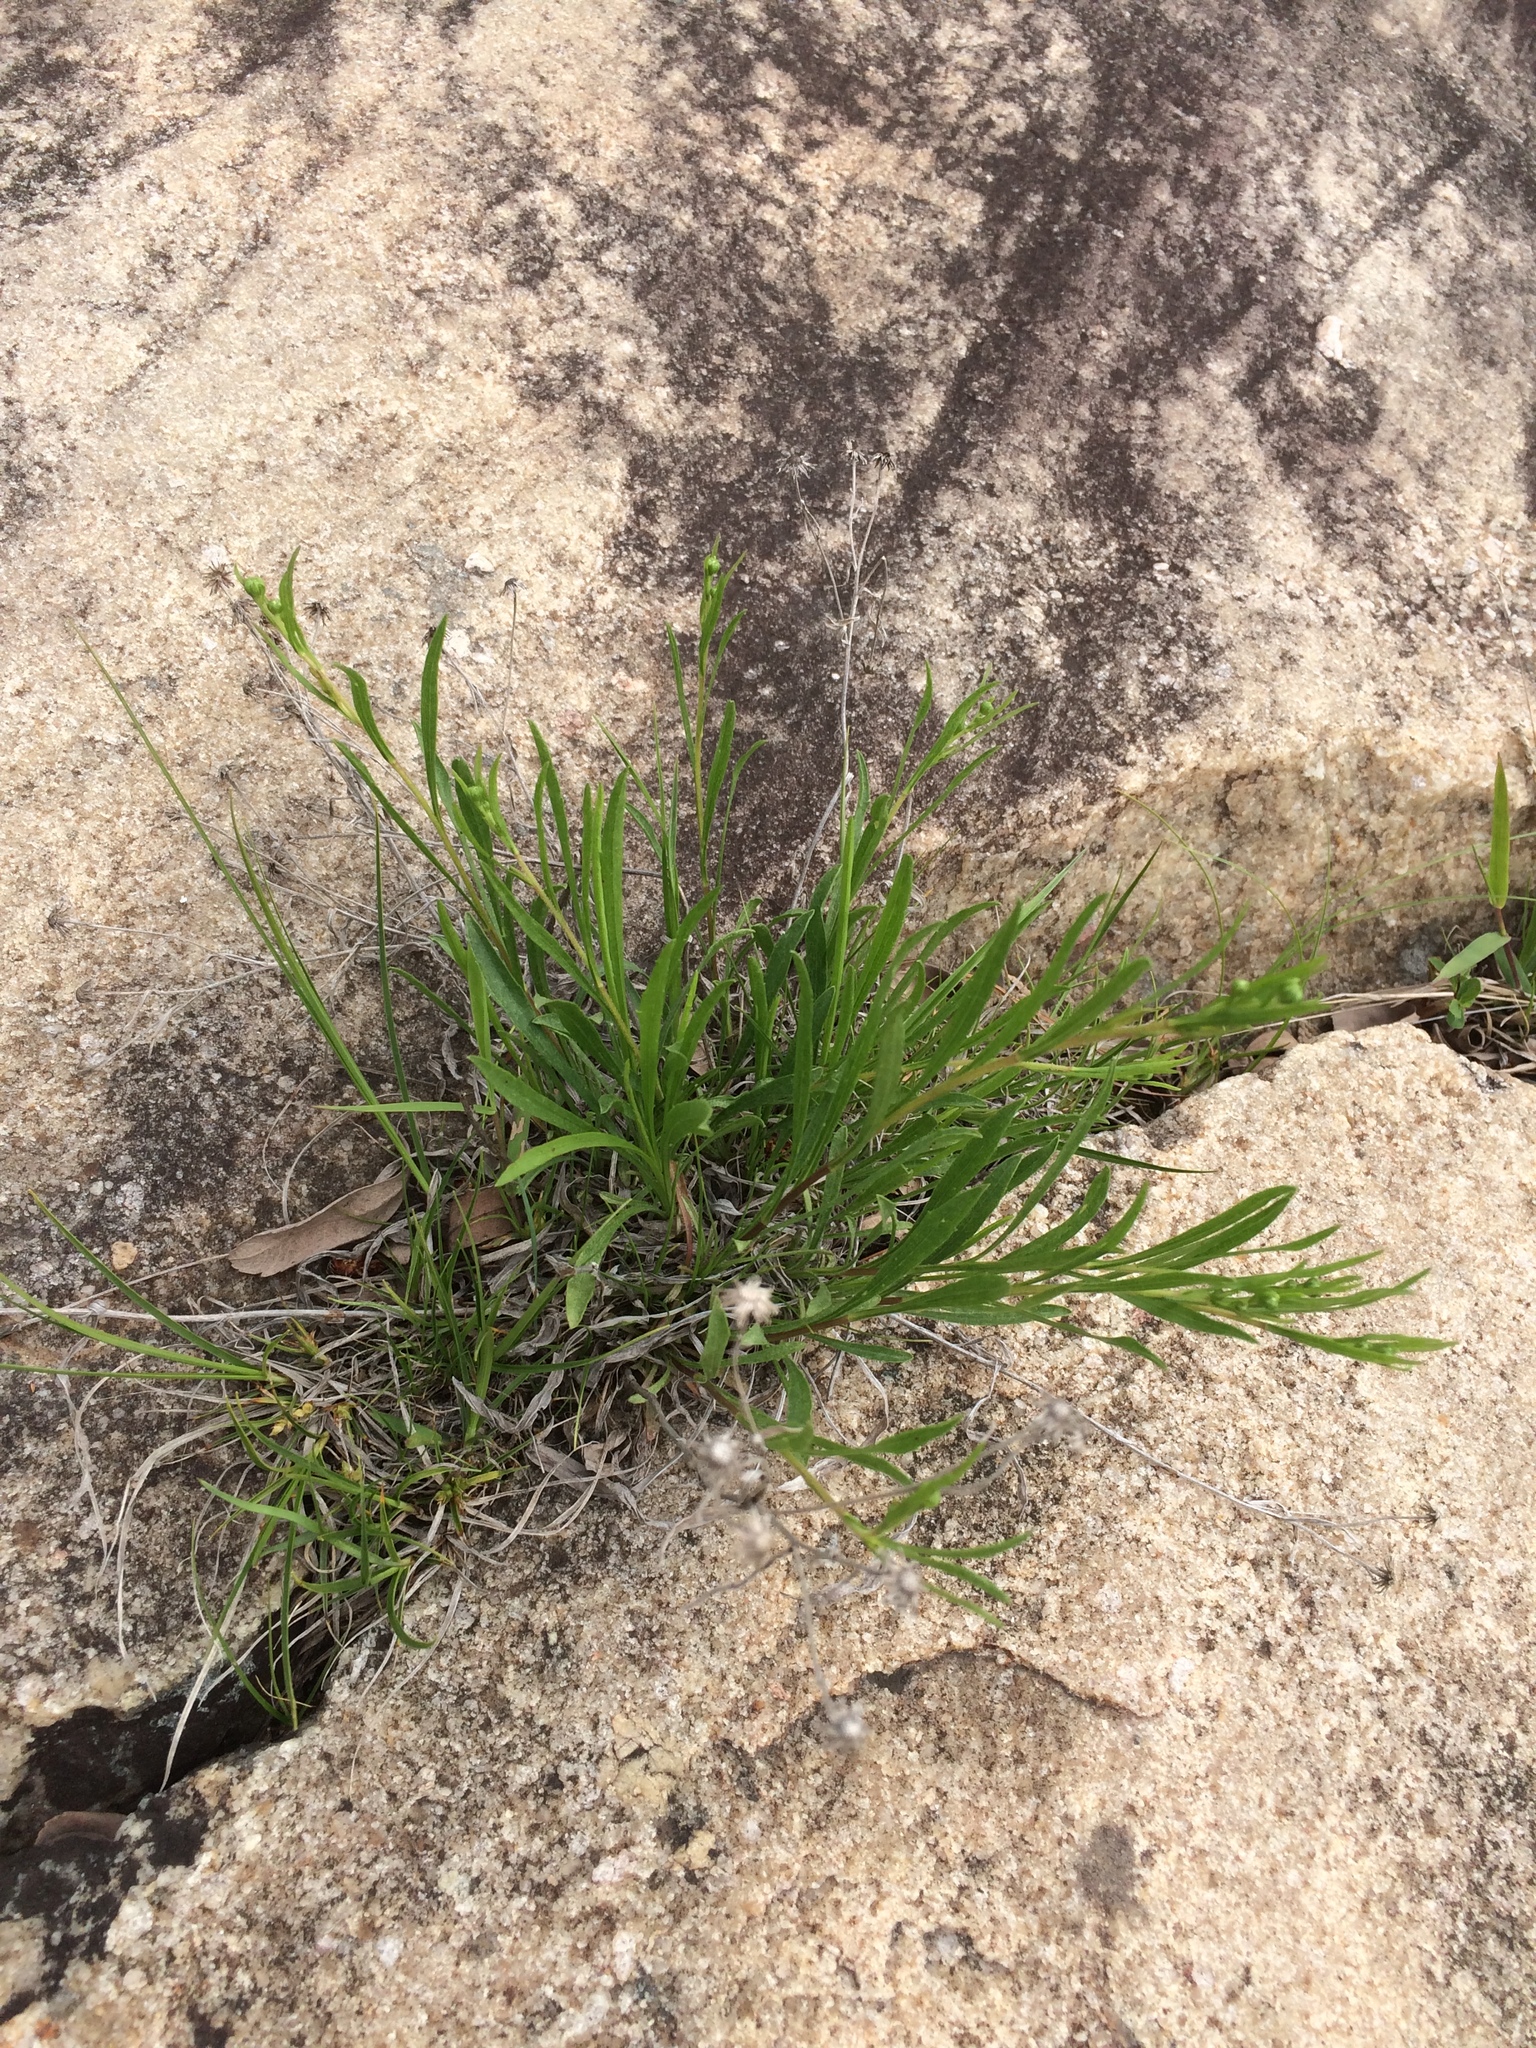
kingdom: Plantae
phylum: Tracheophyta
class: Magnoliopsida
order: Asterales
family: Asteraceae
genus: Solidago
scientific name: Solidago ptarmicoides
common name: White flat-top goldenrod
